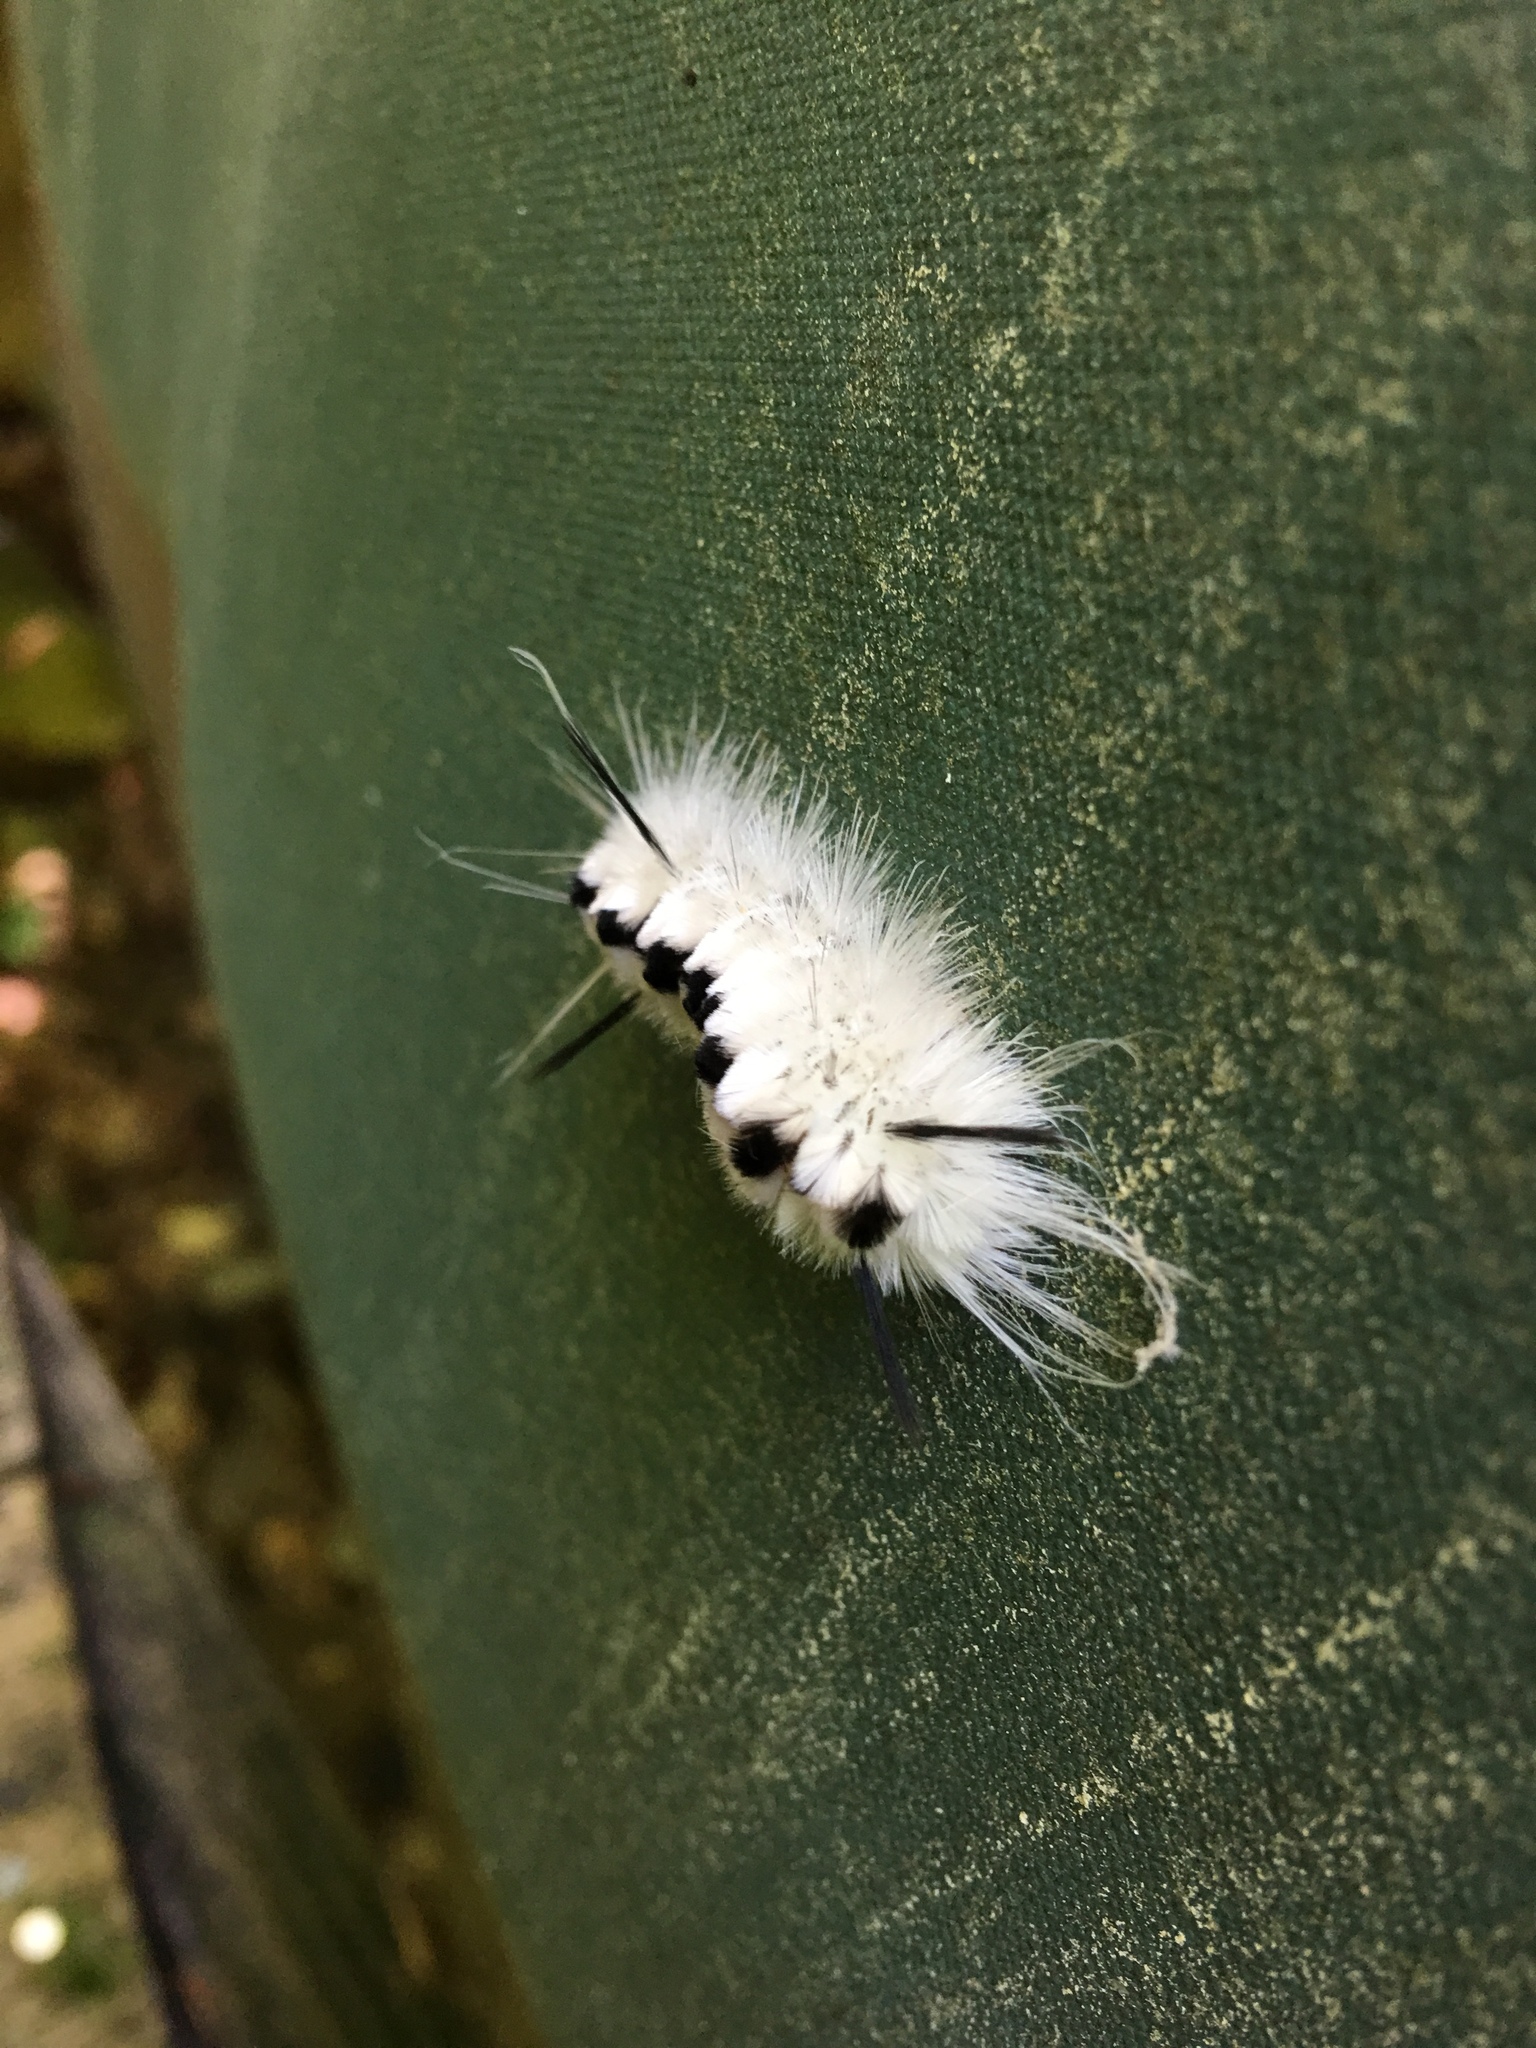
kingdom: Animalia
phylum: Arthropoda
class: Insecta
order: Lepidoptera
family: Erebidae
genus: Lophocampa
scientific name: Lophocampa caryae
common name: Hickory tussock moth
